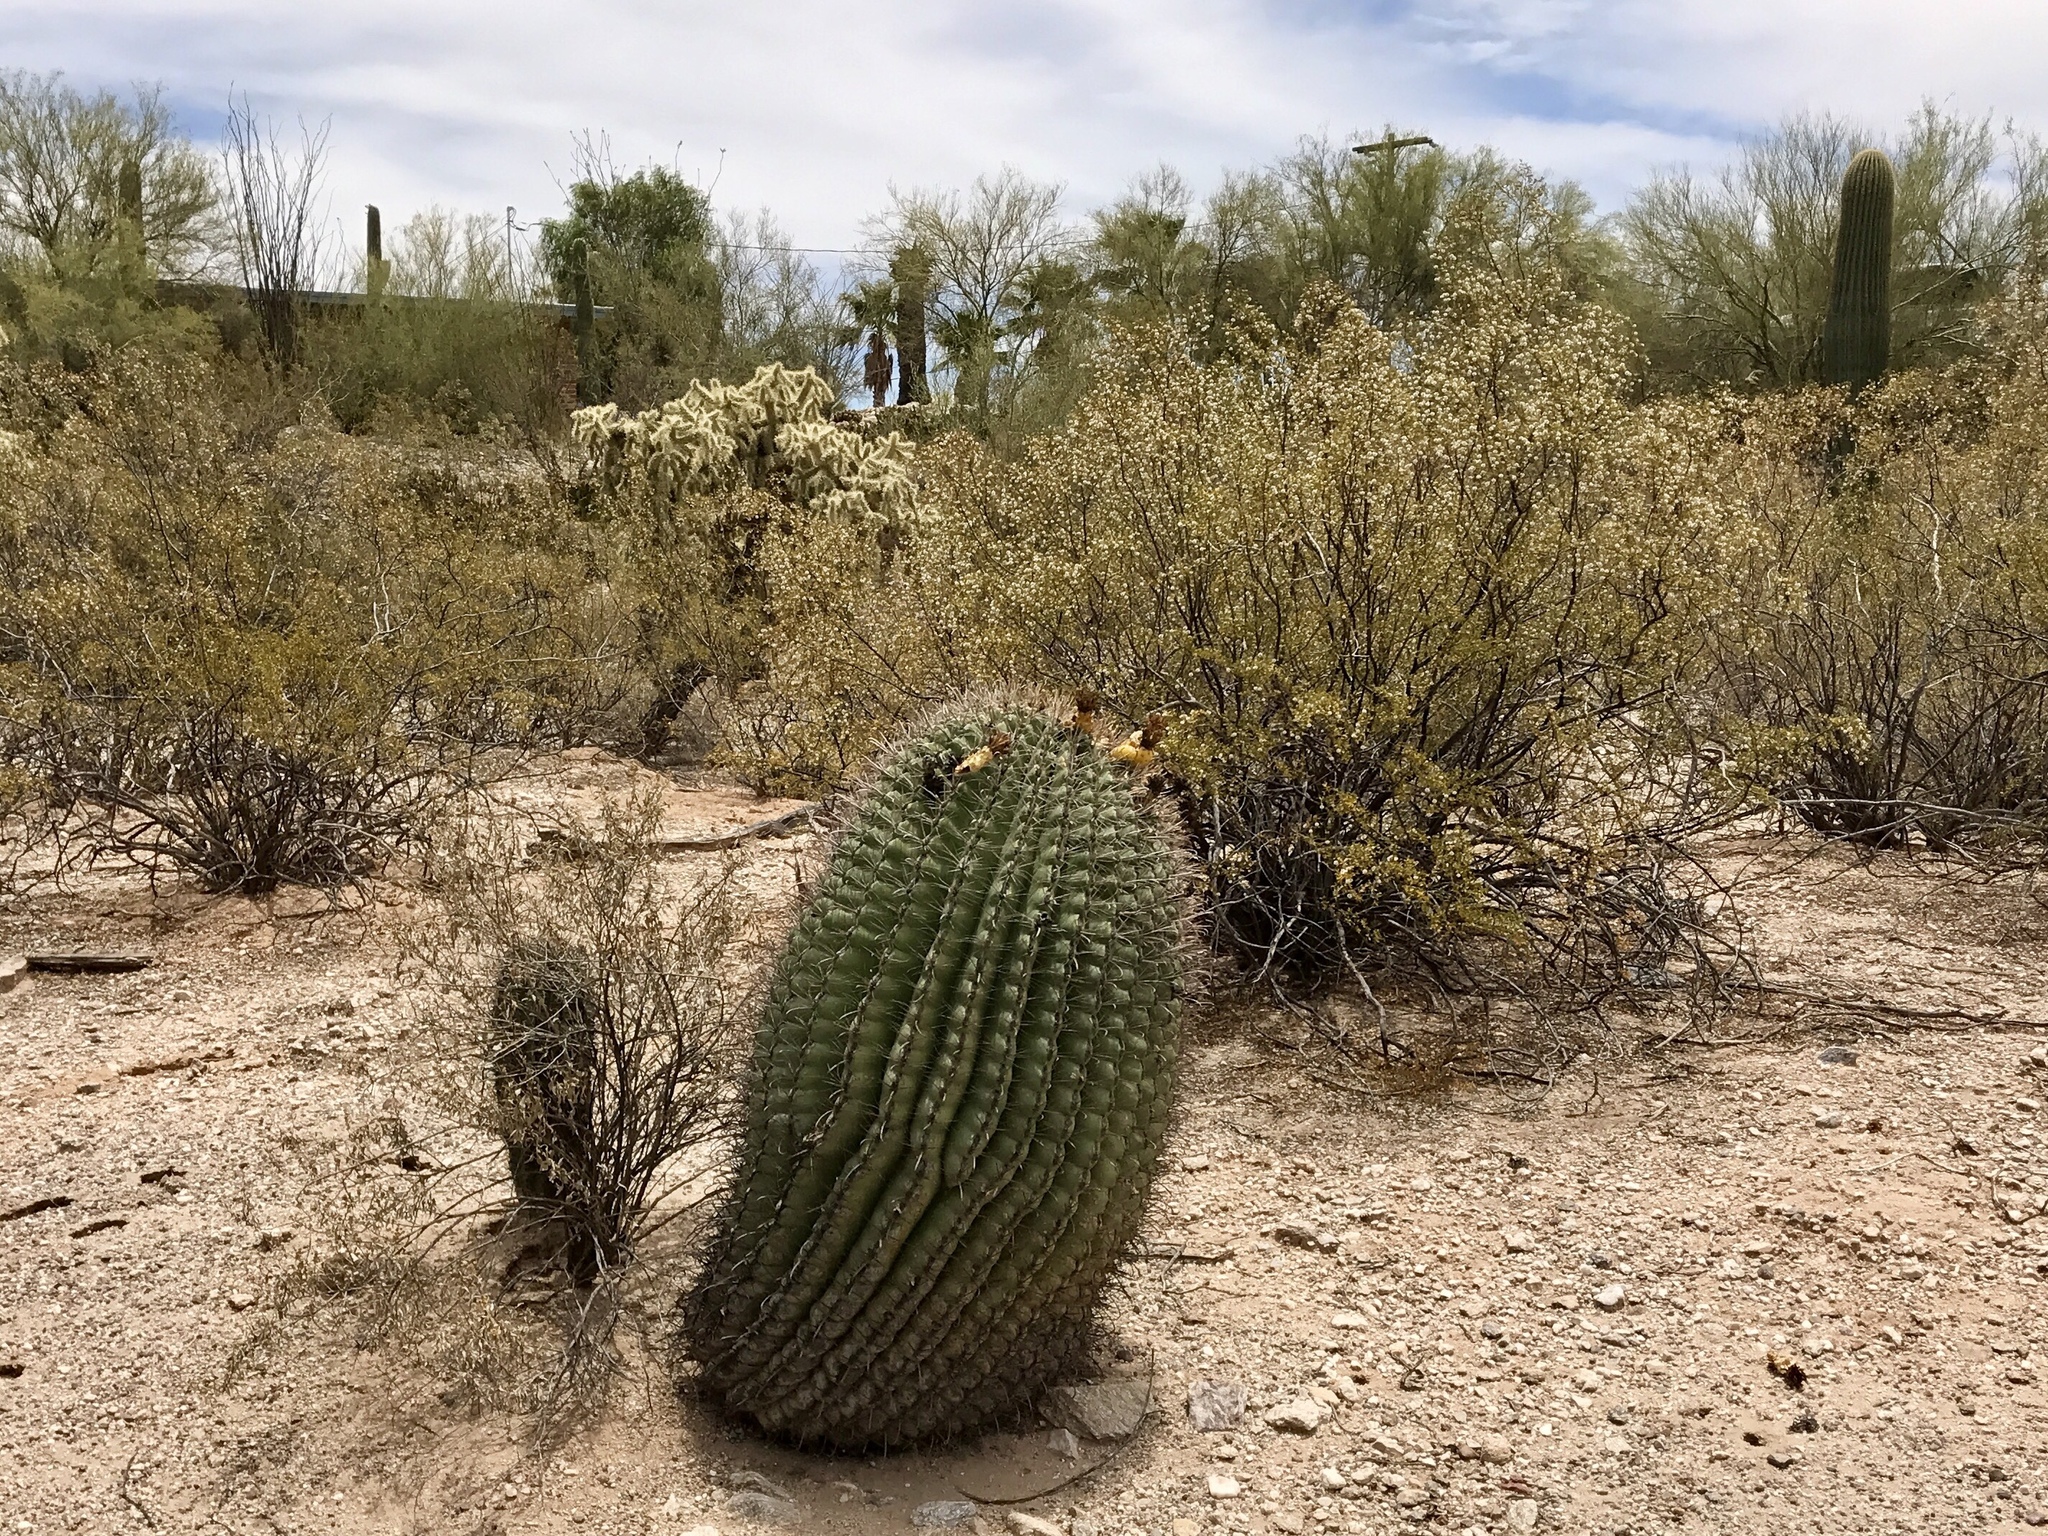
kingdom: Plantae
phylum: Tracheophyta
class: Magnoliopsida
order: Caryophyllales
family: Cactaceae
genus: Ferocactus
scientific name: Ferocactus wislizeni
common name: Candy barrel cactus
